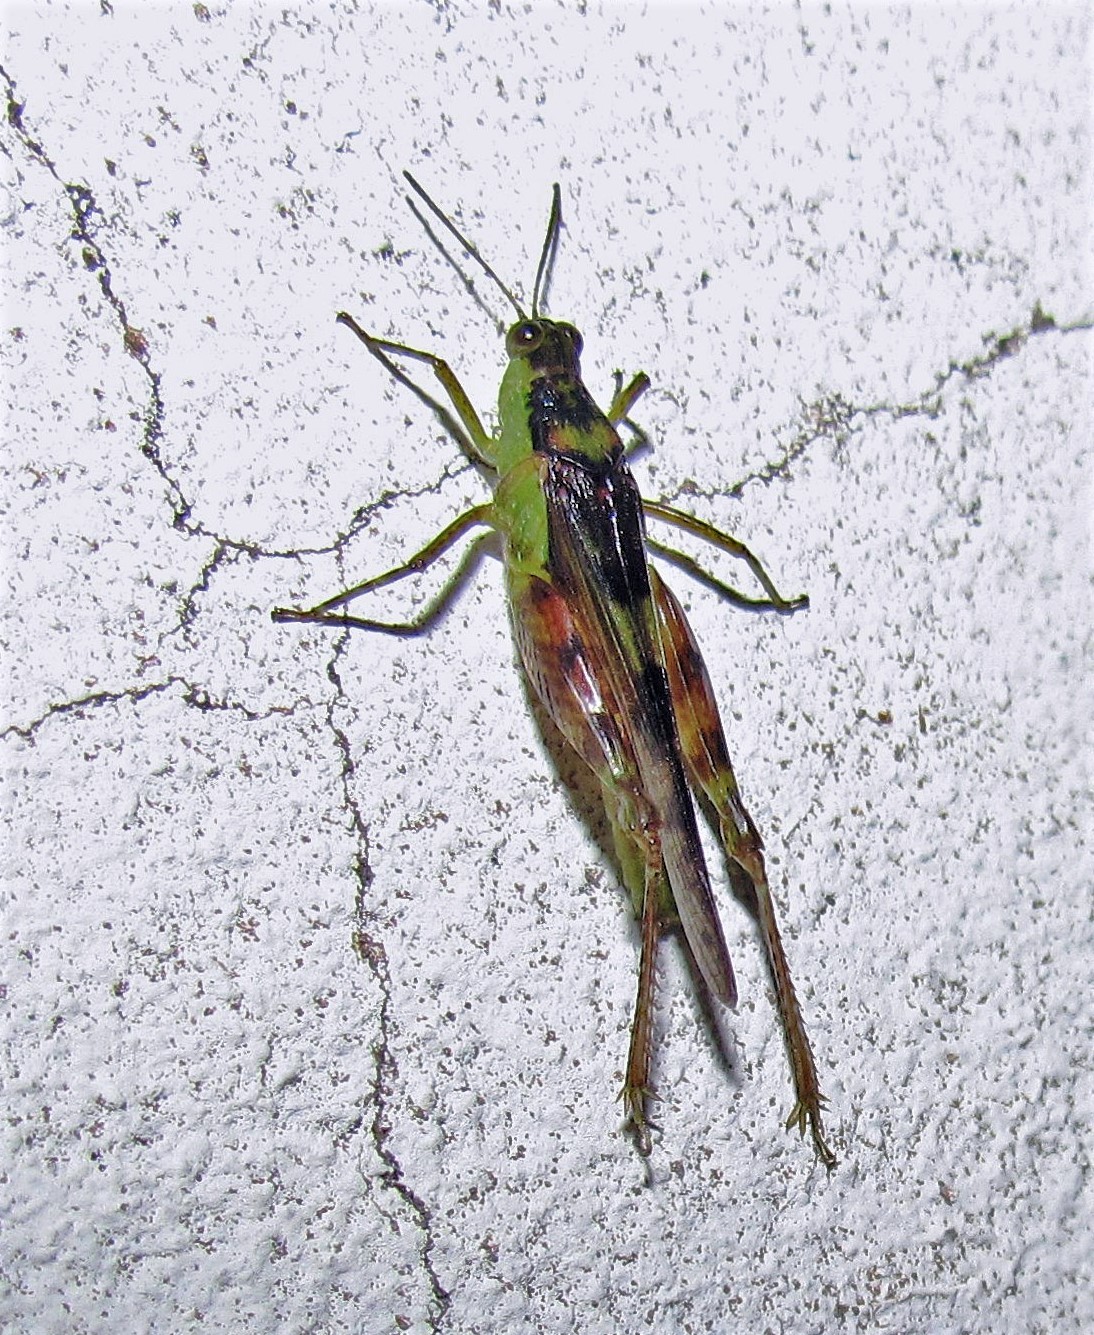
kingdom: Animalia
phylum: Arthropoda
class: Insecta
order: Orthoptera
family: Acrididae
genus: Paulinia
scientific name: Paulinia acuminata
